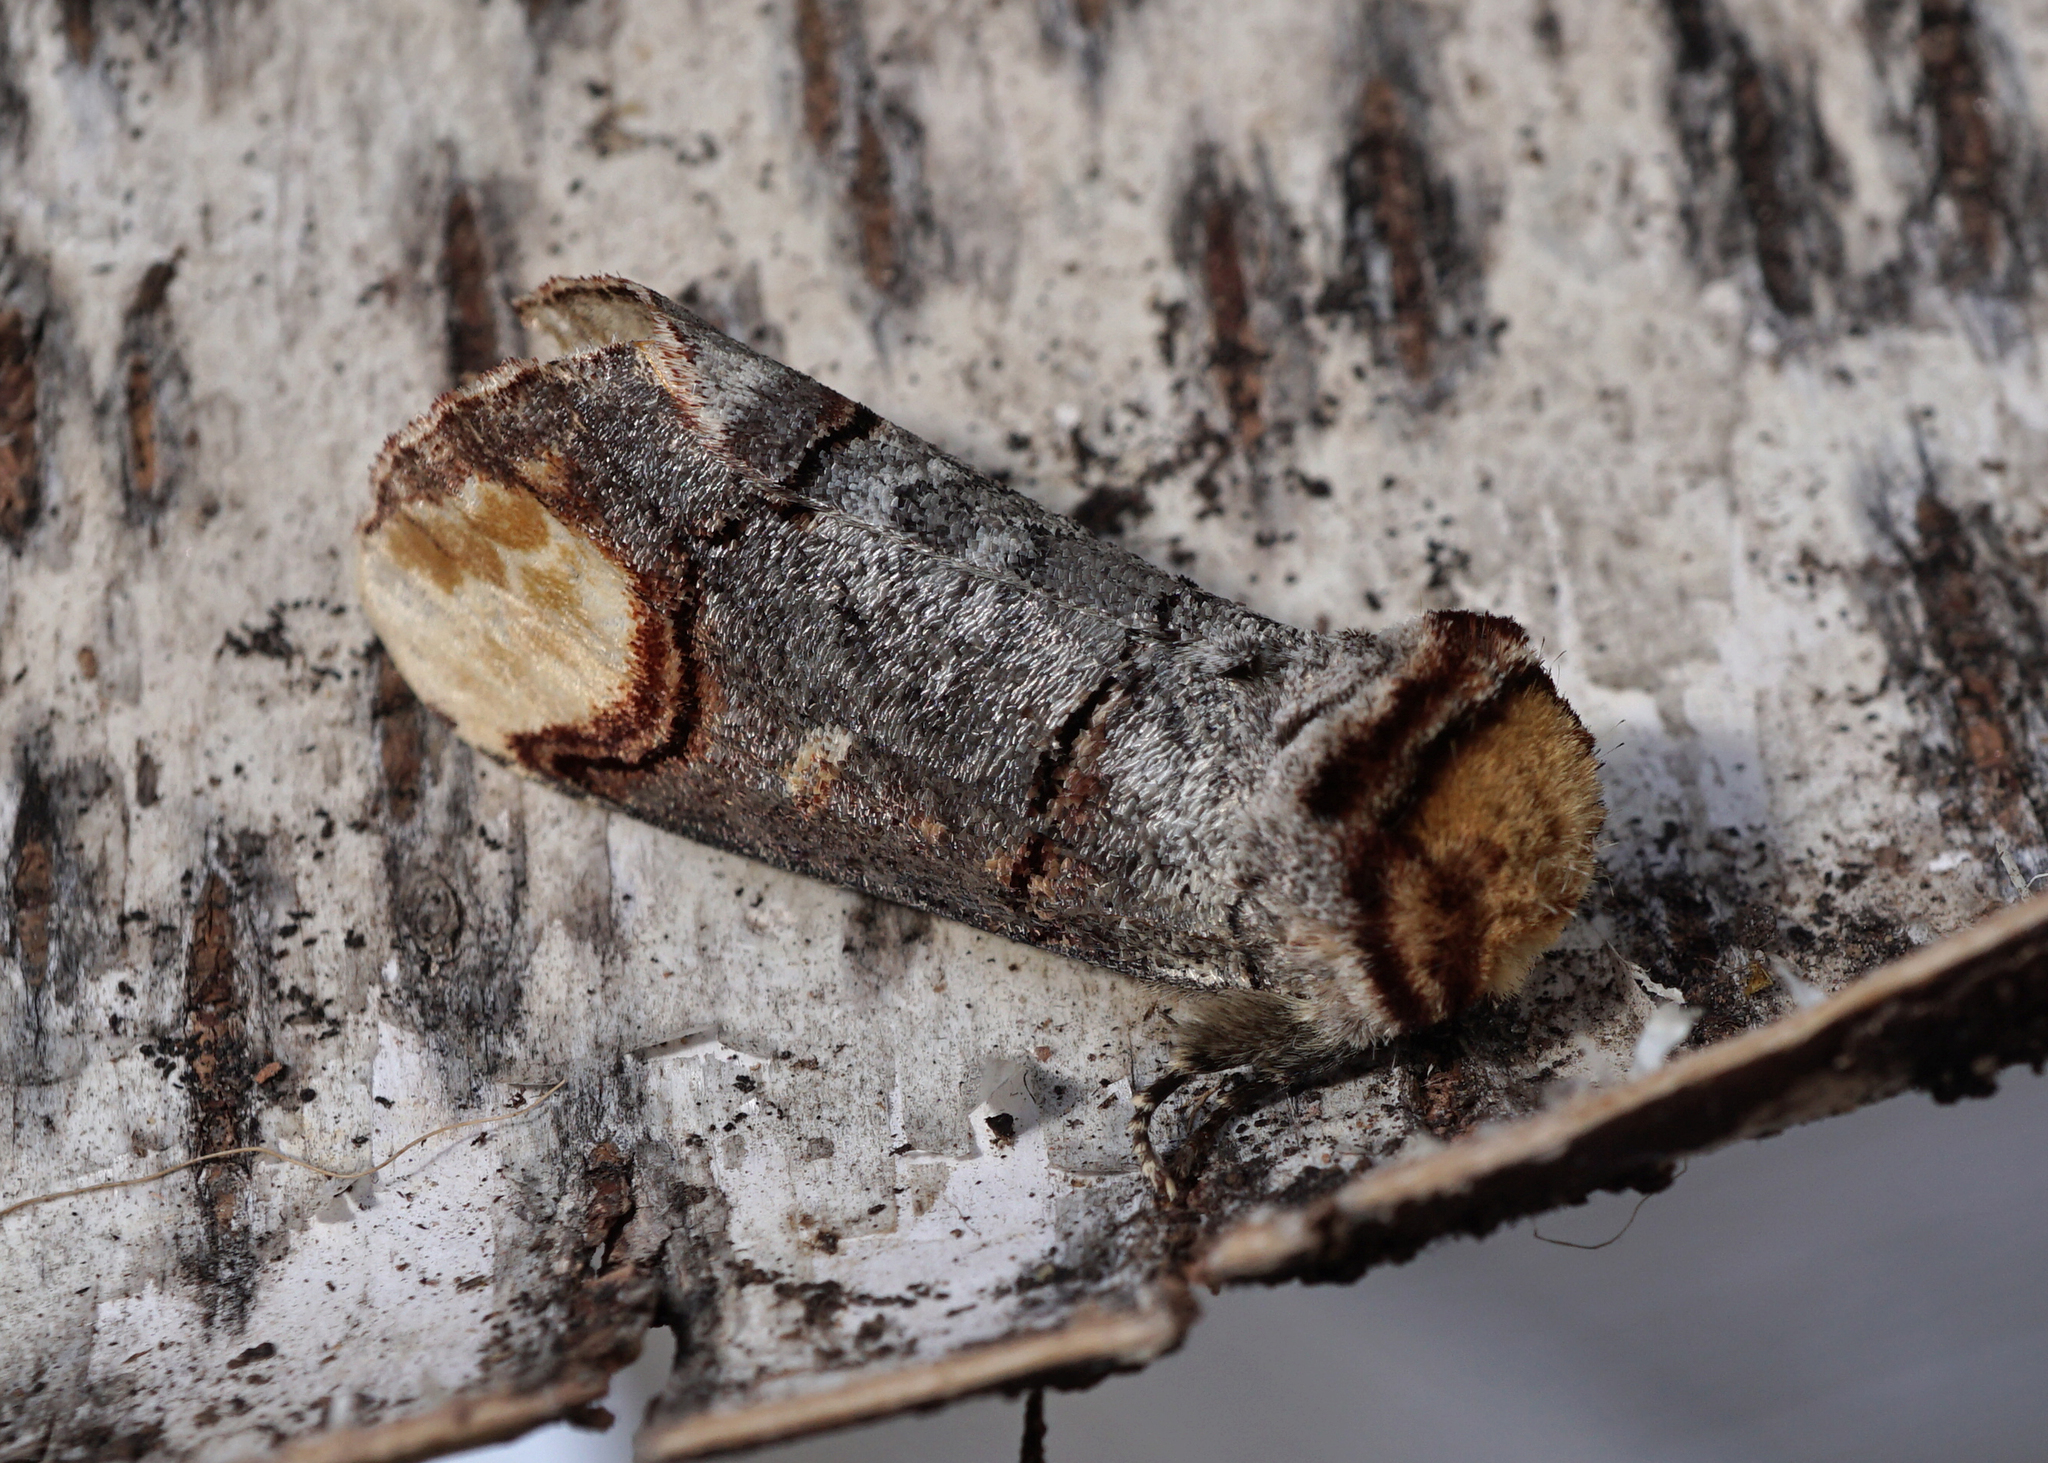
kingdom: Animalia
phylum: Arthropoda
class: Insecta
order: Lepidoptera
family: Notodontidae
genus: Phalera
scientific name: Phalera bucephala
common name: Buff-tip
